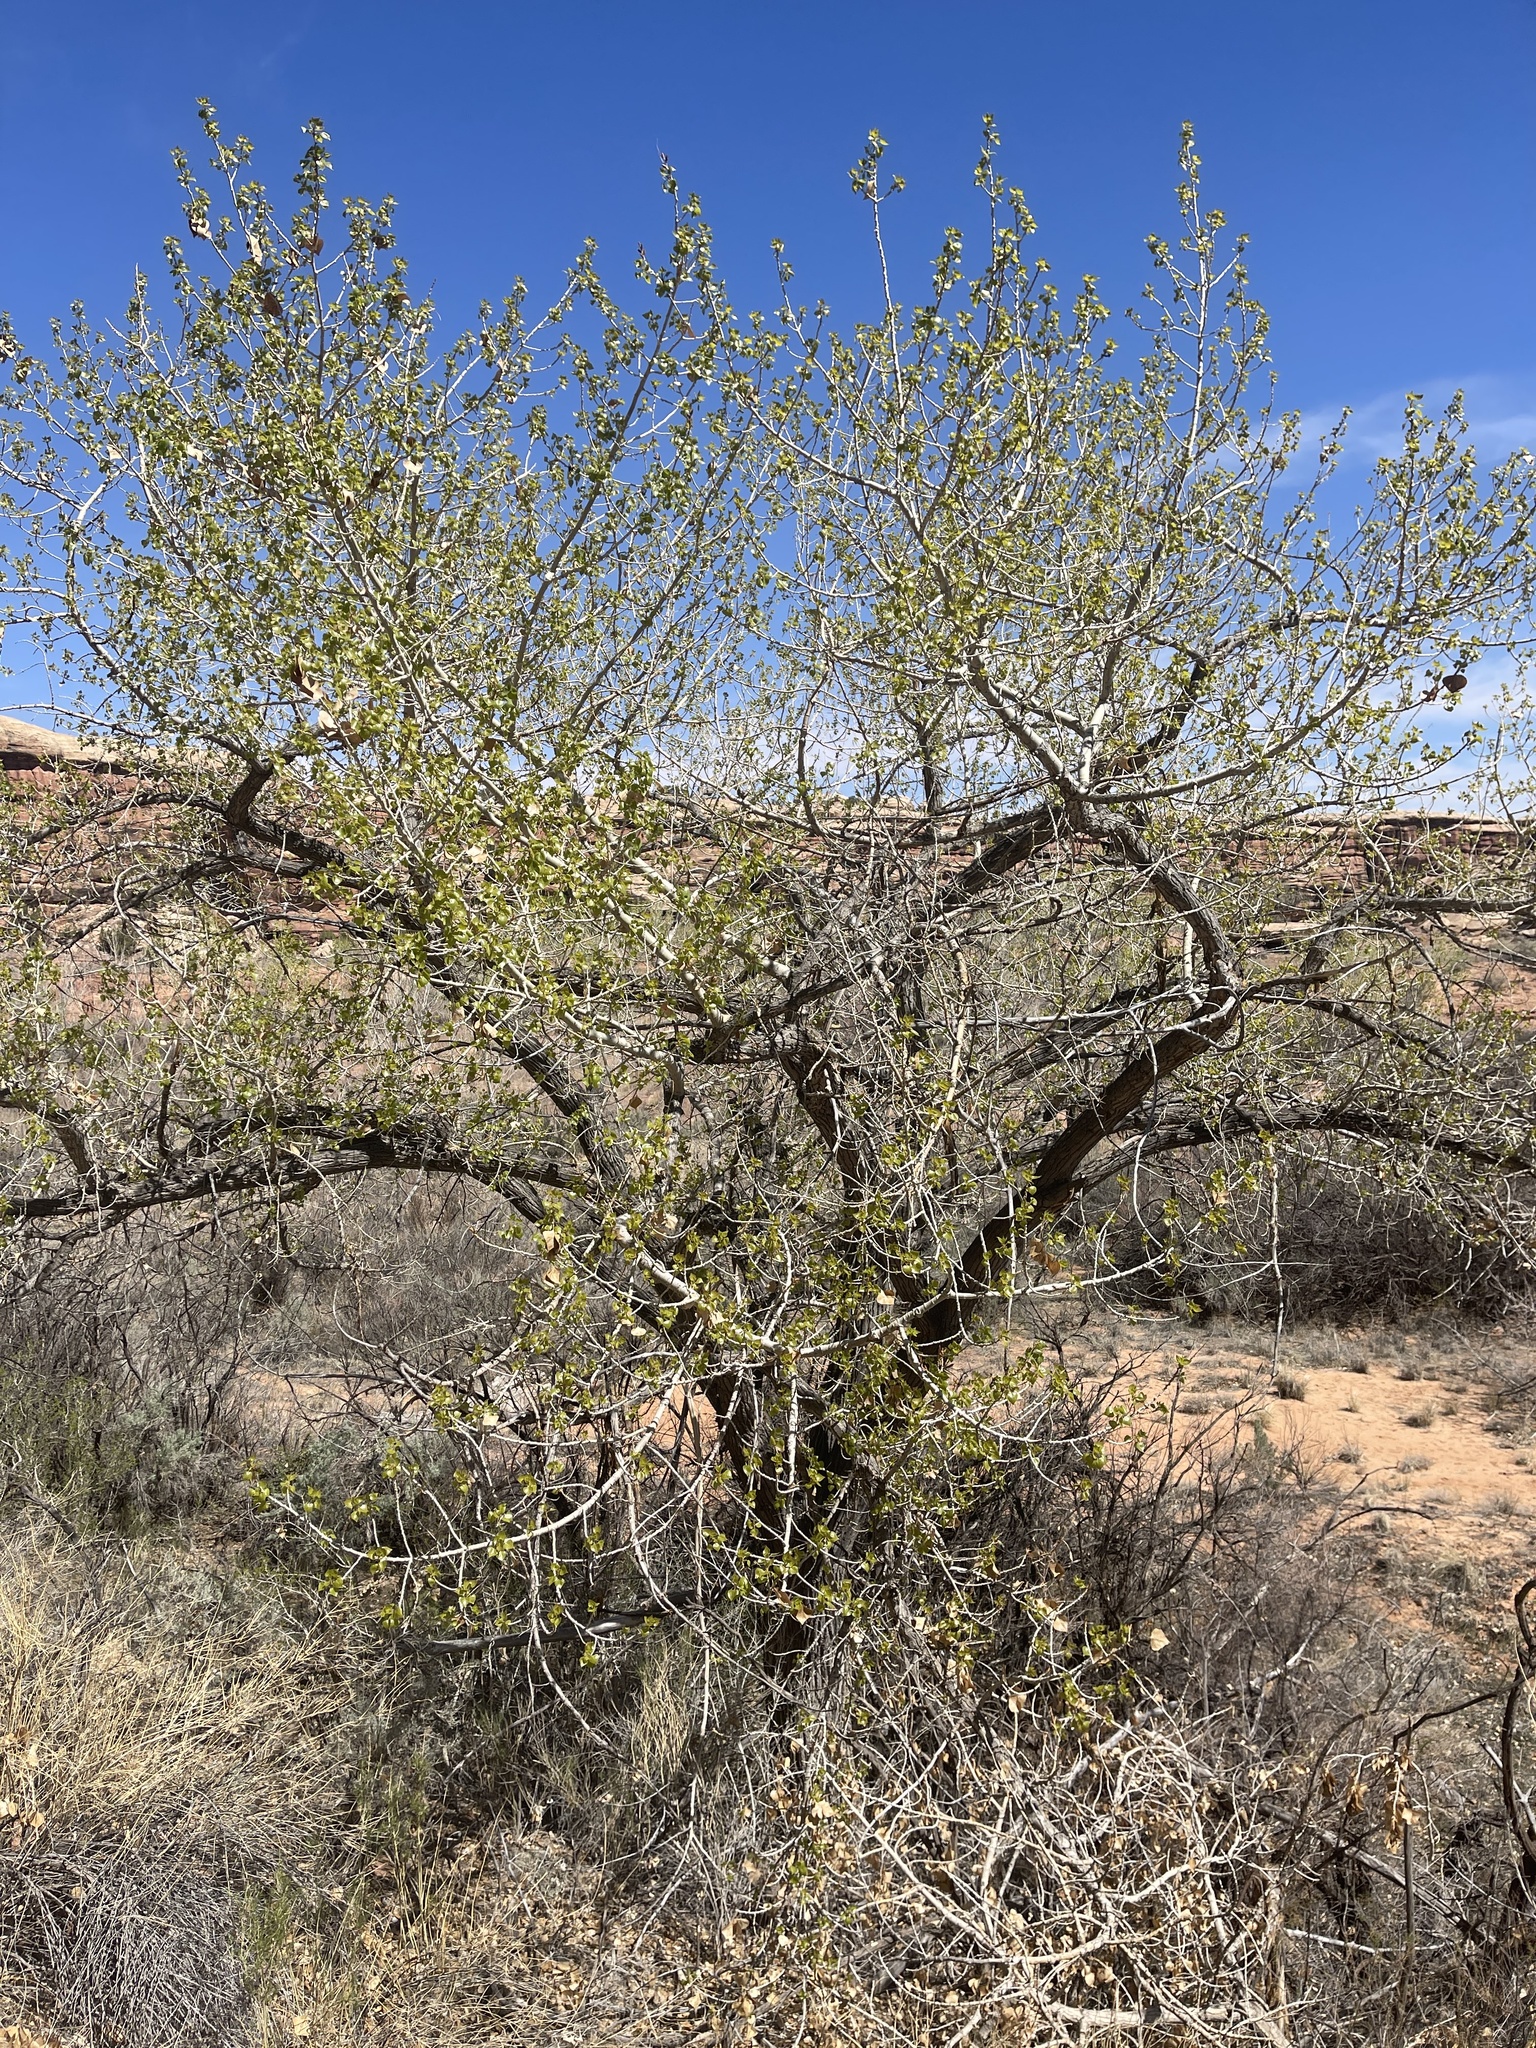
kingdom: Plantae
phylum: Tracheophyta
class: Magnoliopsida
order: Malpighiales
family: Salicaceae
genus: Populus
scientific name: Populus fremontii
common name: Fremont's cottonwood
